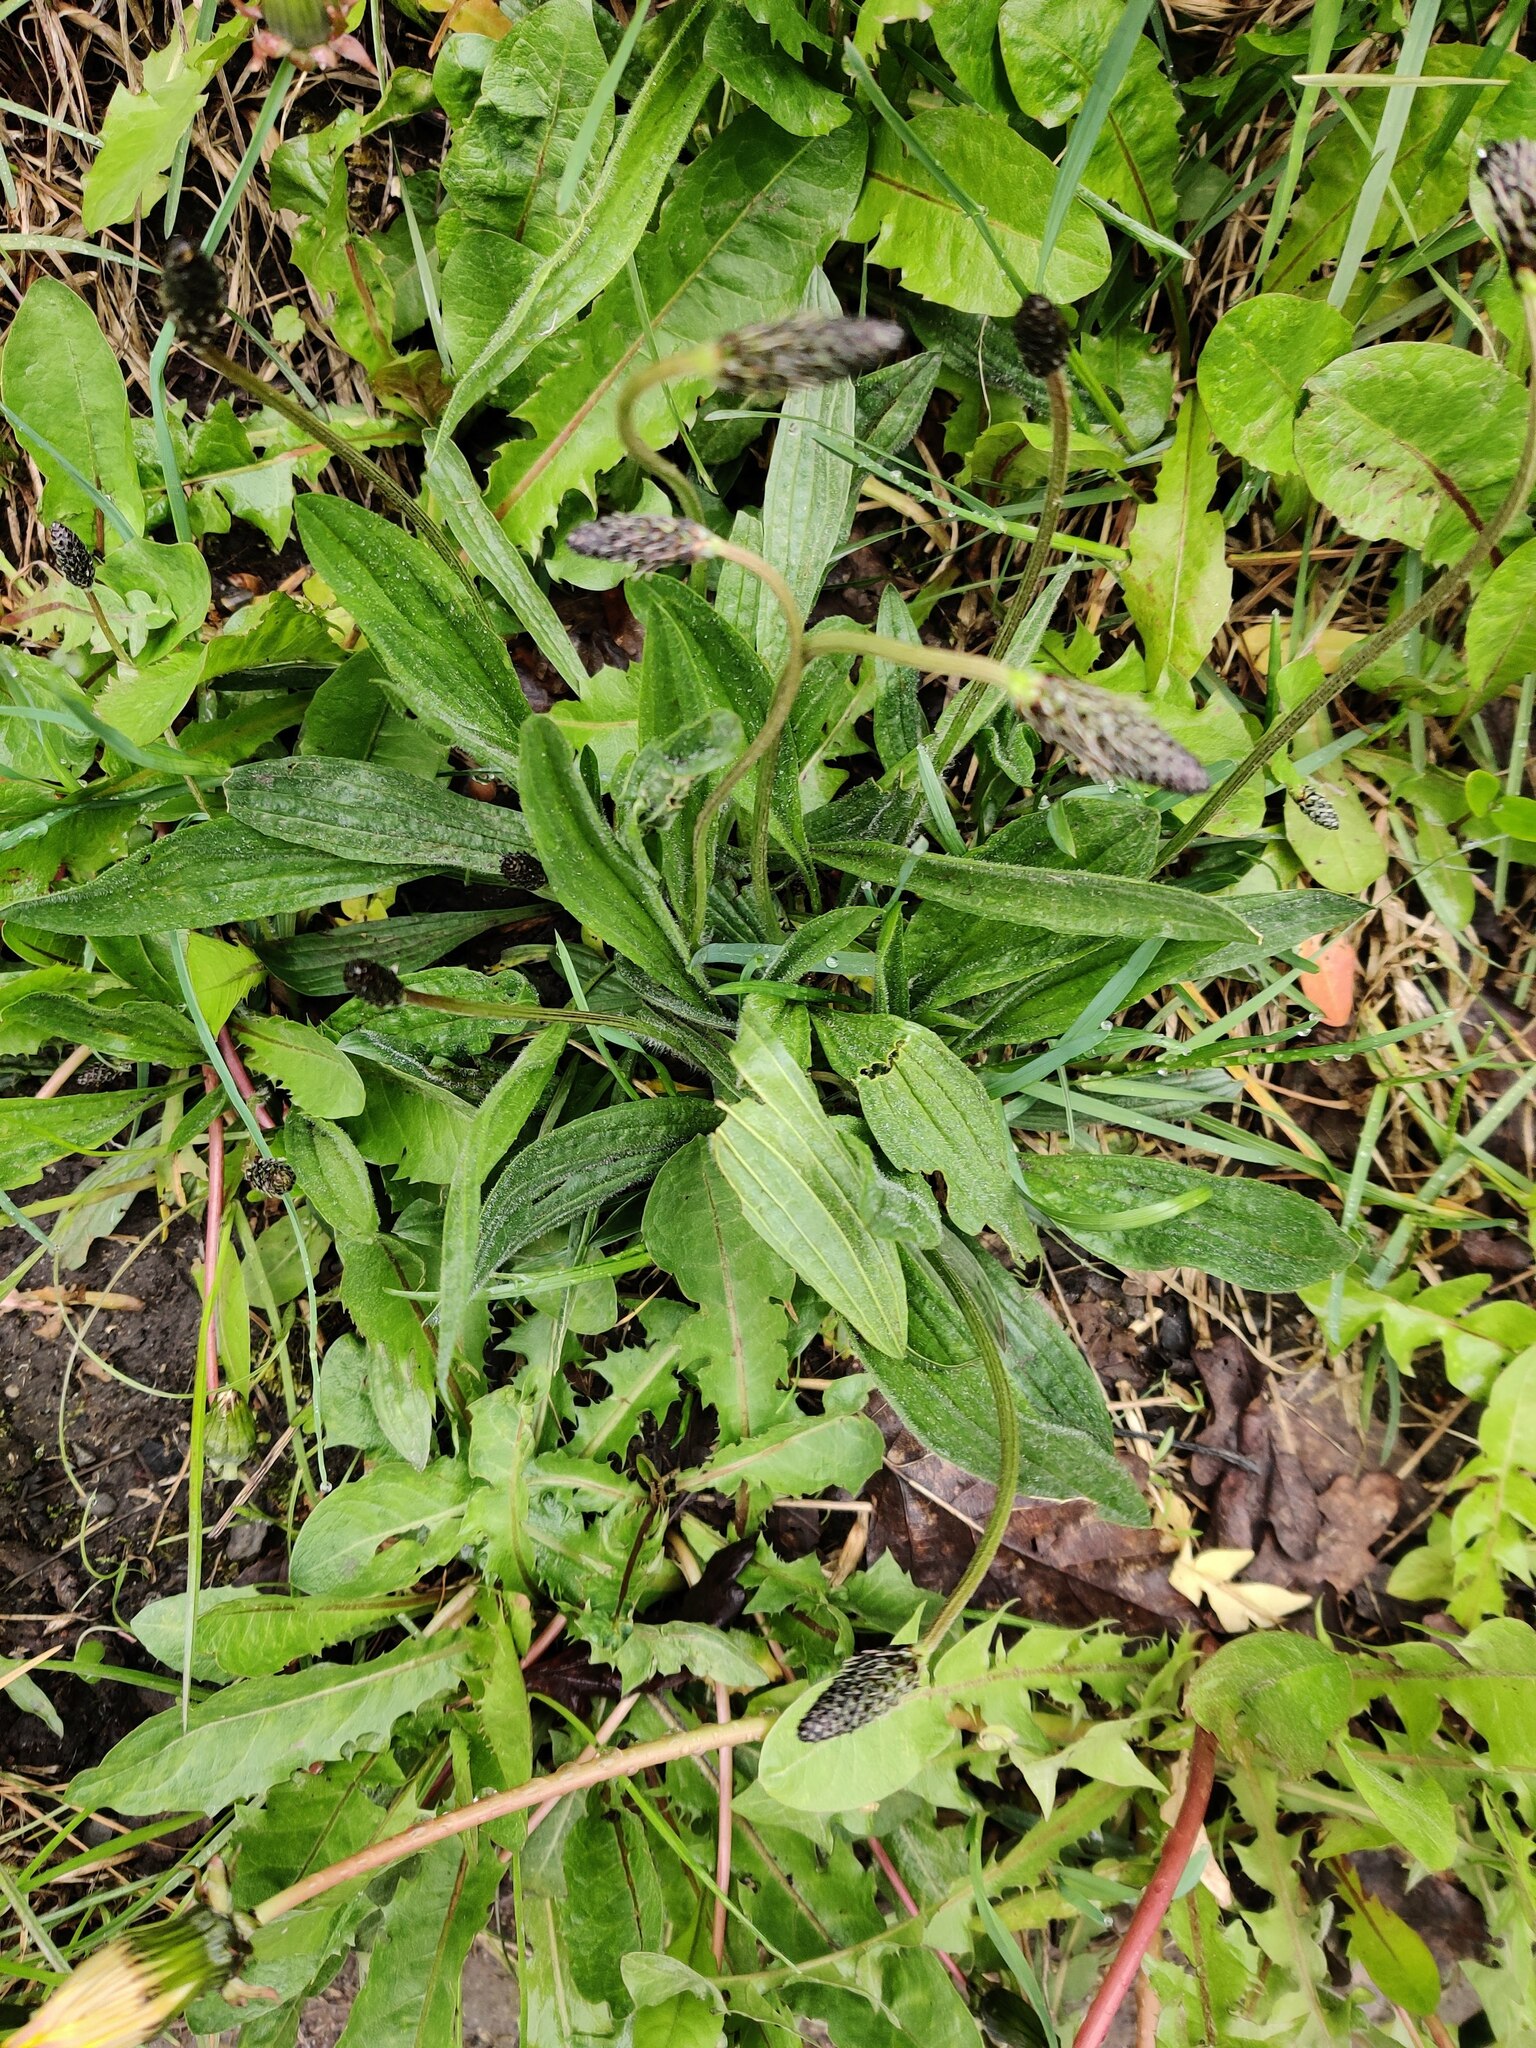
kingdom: Plantae
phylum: Tracheophyta
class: Magnoliopsida
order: Lamiales
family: Plantaginaceae
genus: Plantago
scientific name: Plantago lanceolata
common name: Ribwort plantain
